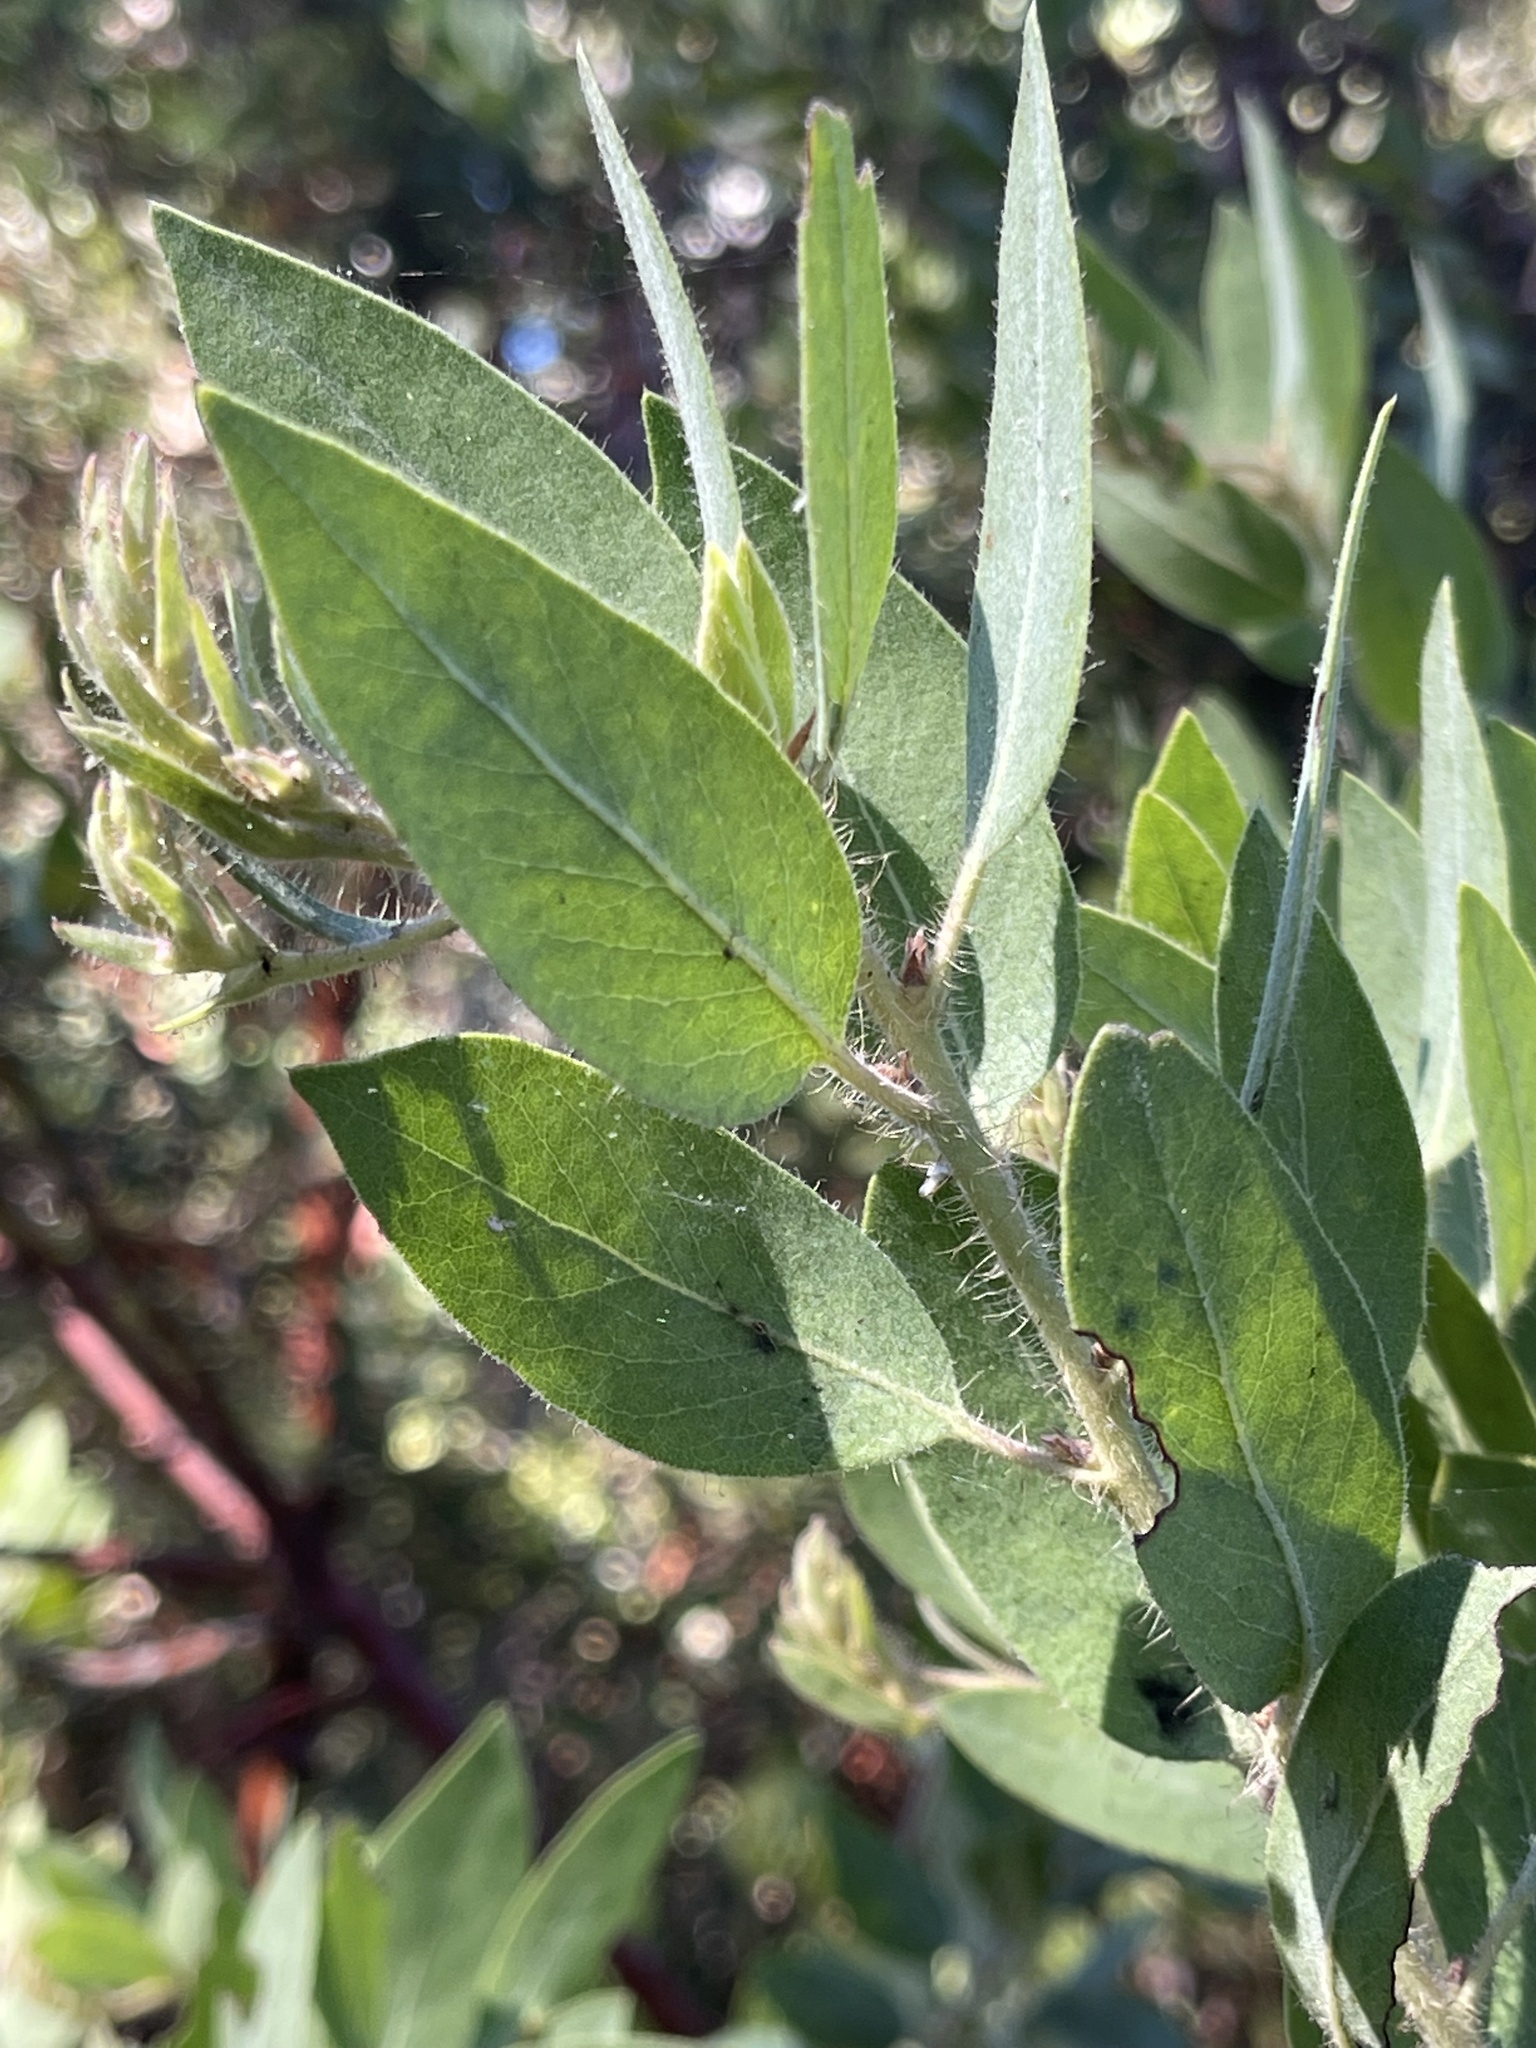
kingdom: Plantae
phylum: Tracheophyta
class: Magnoliopsida
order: Ericales
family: Ericaceae
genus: Arctostaphylos
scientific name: Arctostaphylos columbiana
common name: Bristly bearberry
